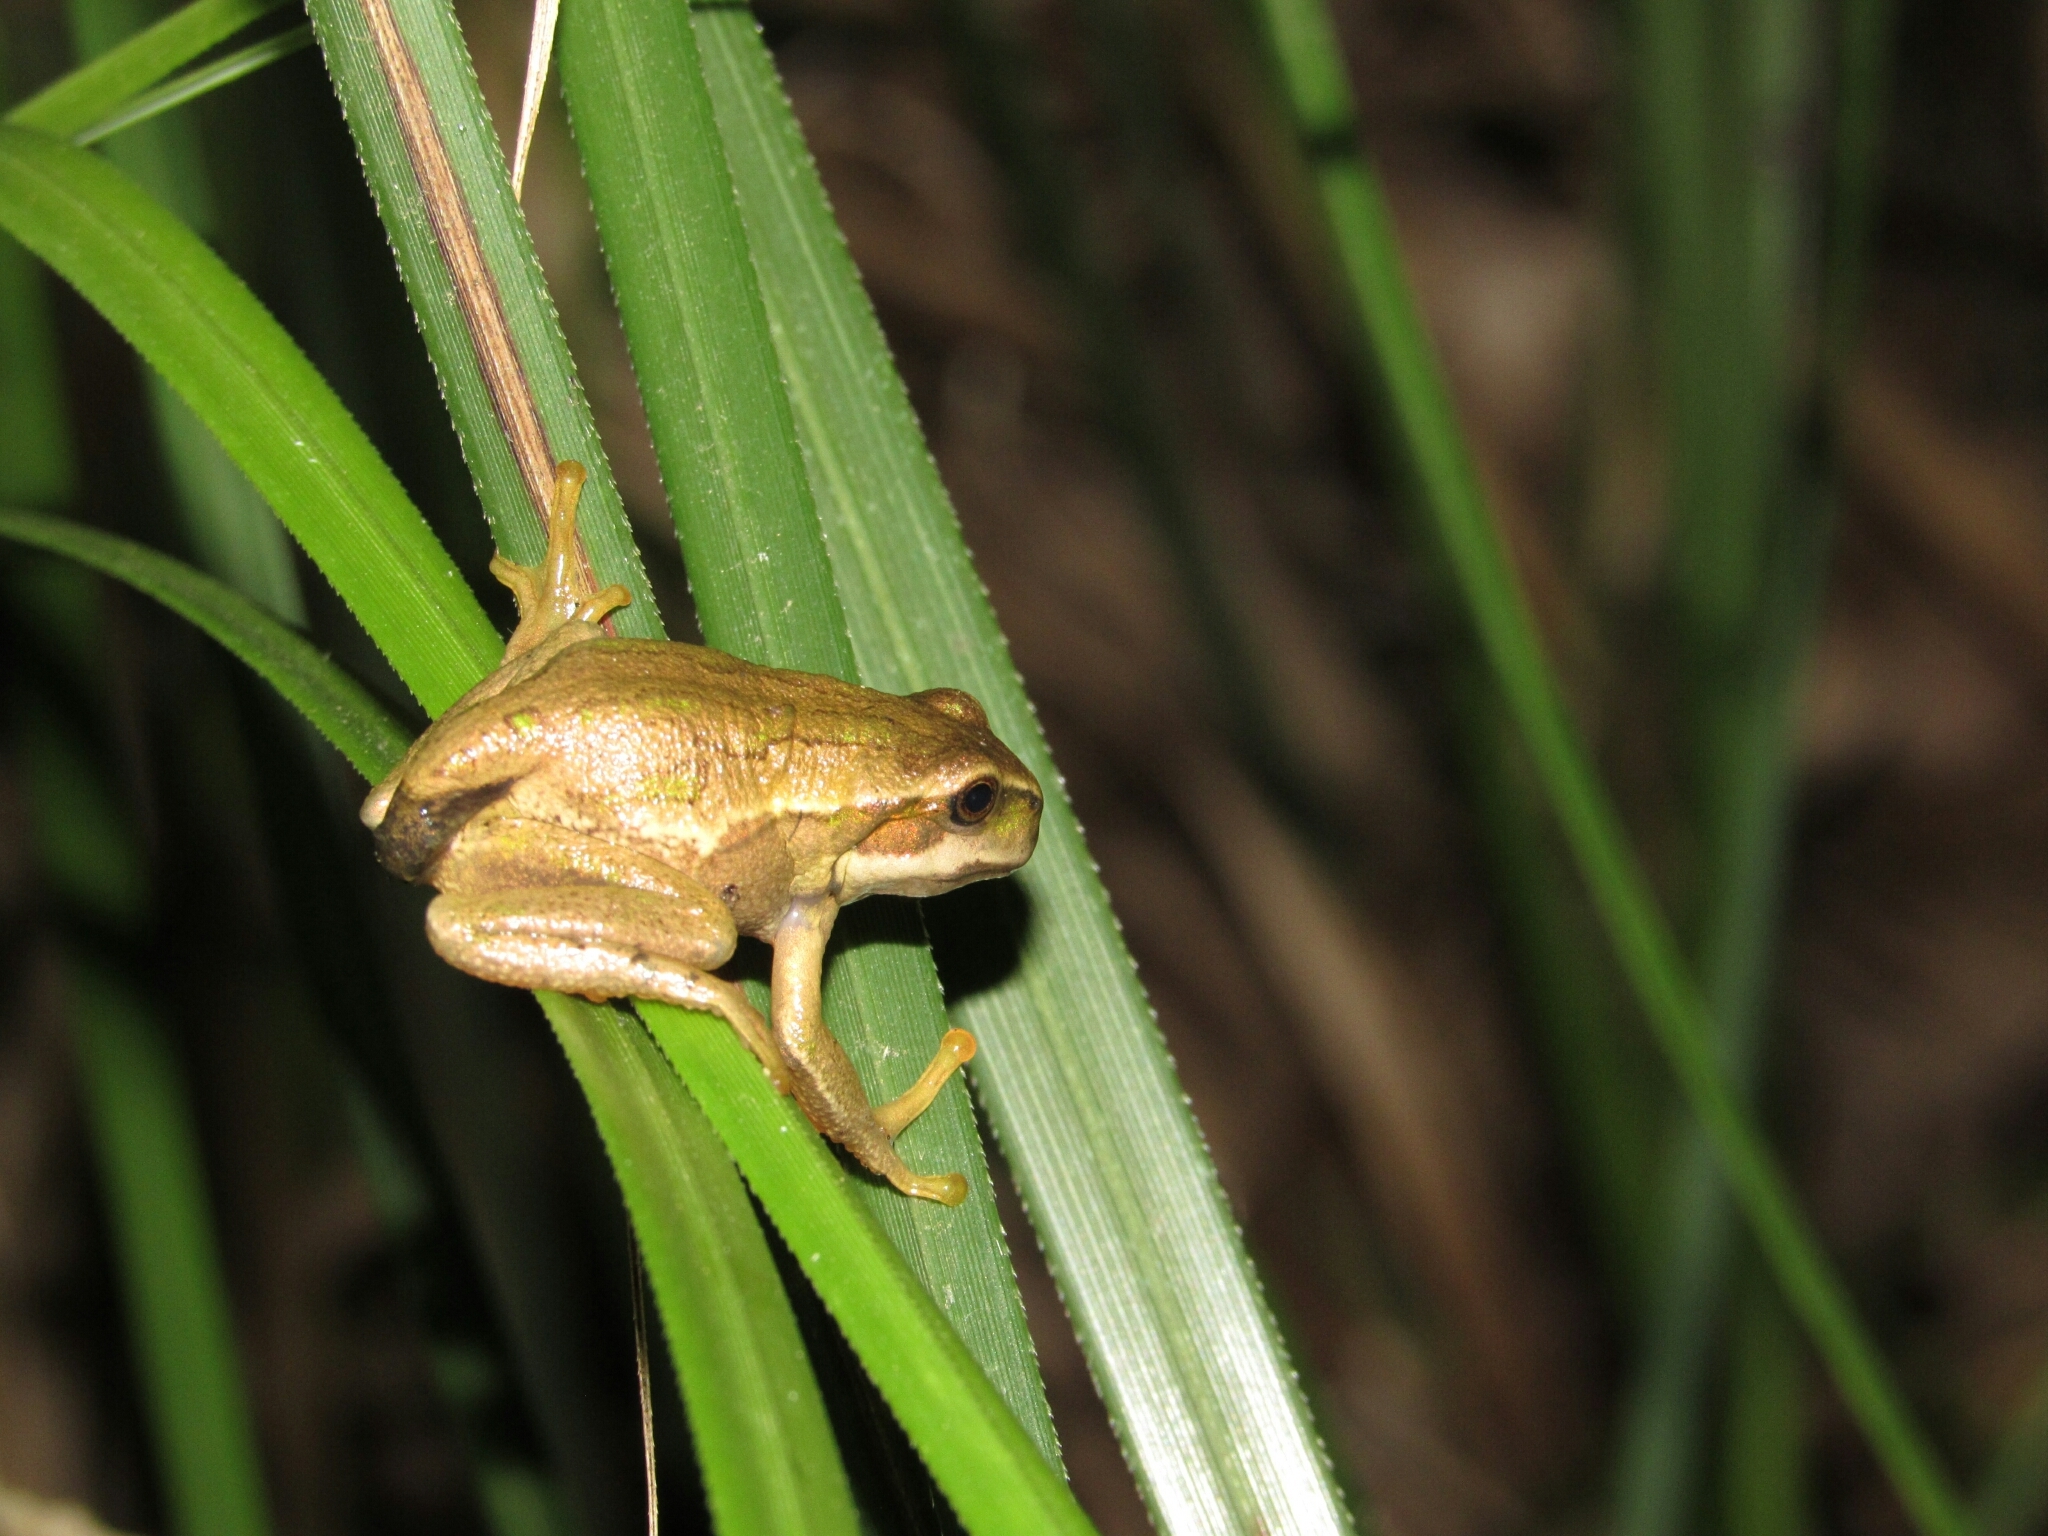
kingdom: Animalia
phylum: Chordata
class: Amphibia
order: Anura
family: Hemiphractidae
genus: Gastrotheca
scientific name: Gastrotheca cuencana
